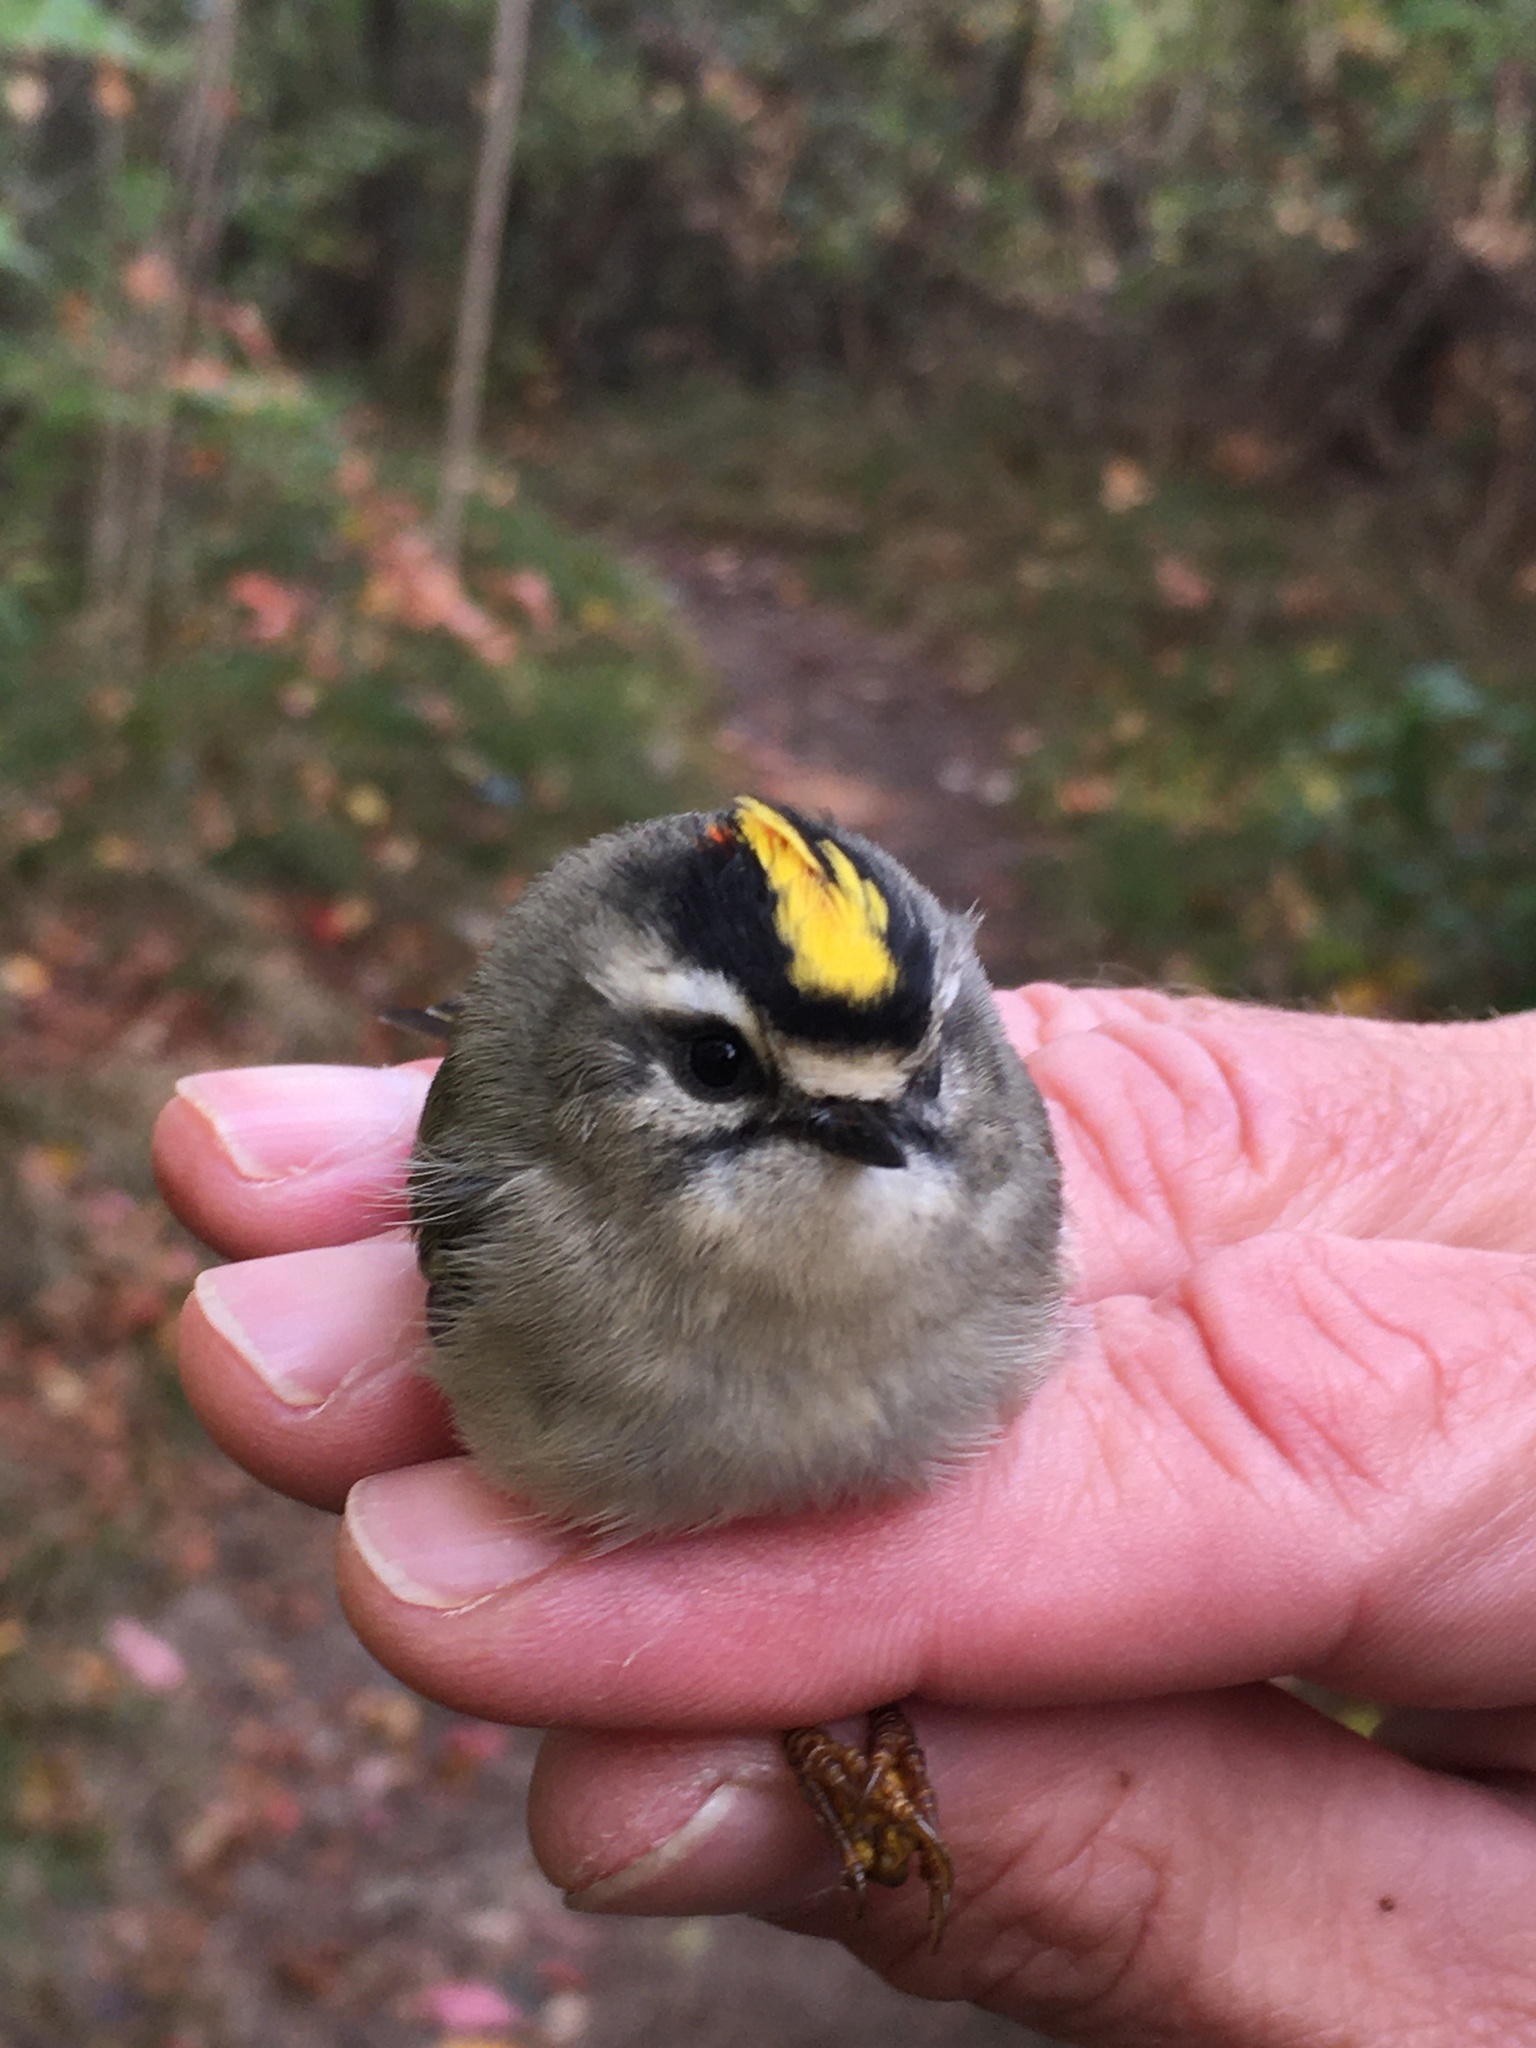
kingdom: Animalia
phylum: Chordata
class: Aves
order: Passeriformes
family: Regulidae
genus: Regulus
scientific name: Regulus satrapa
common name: Golden-crowned kinglet
